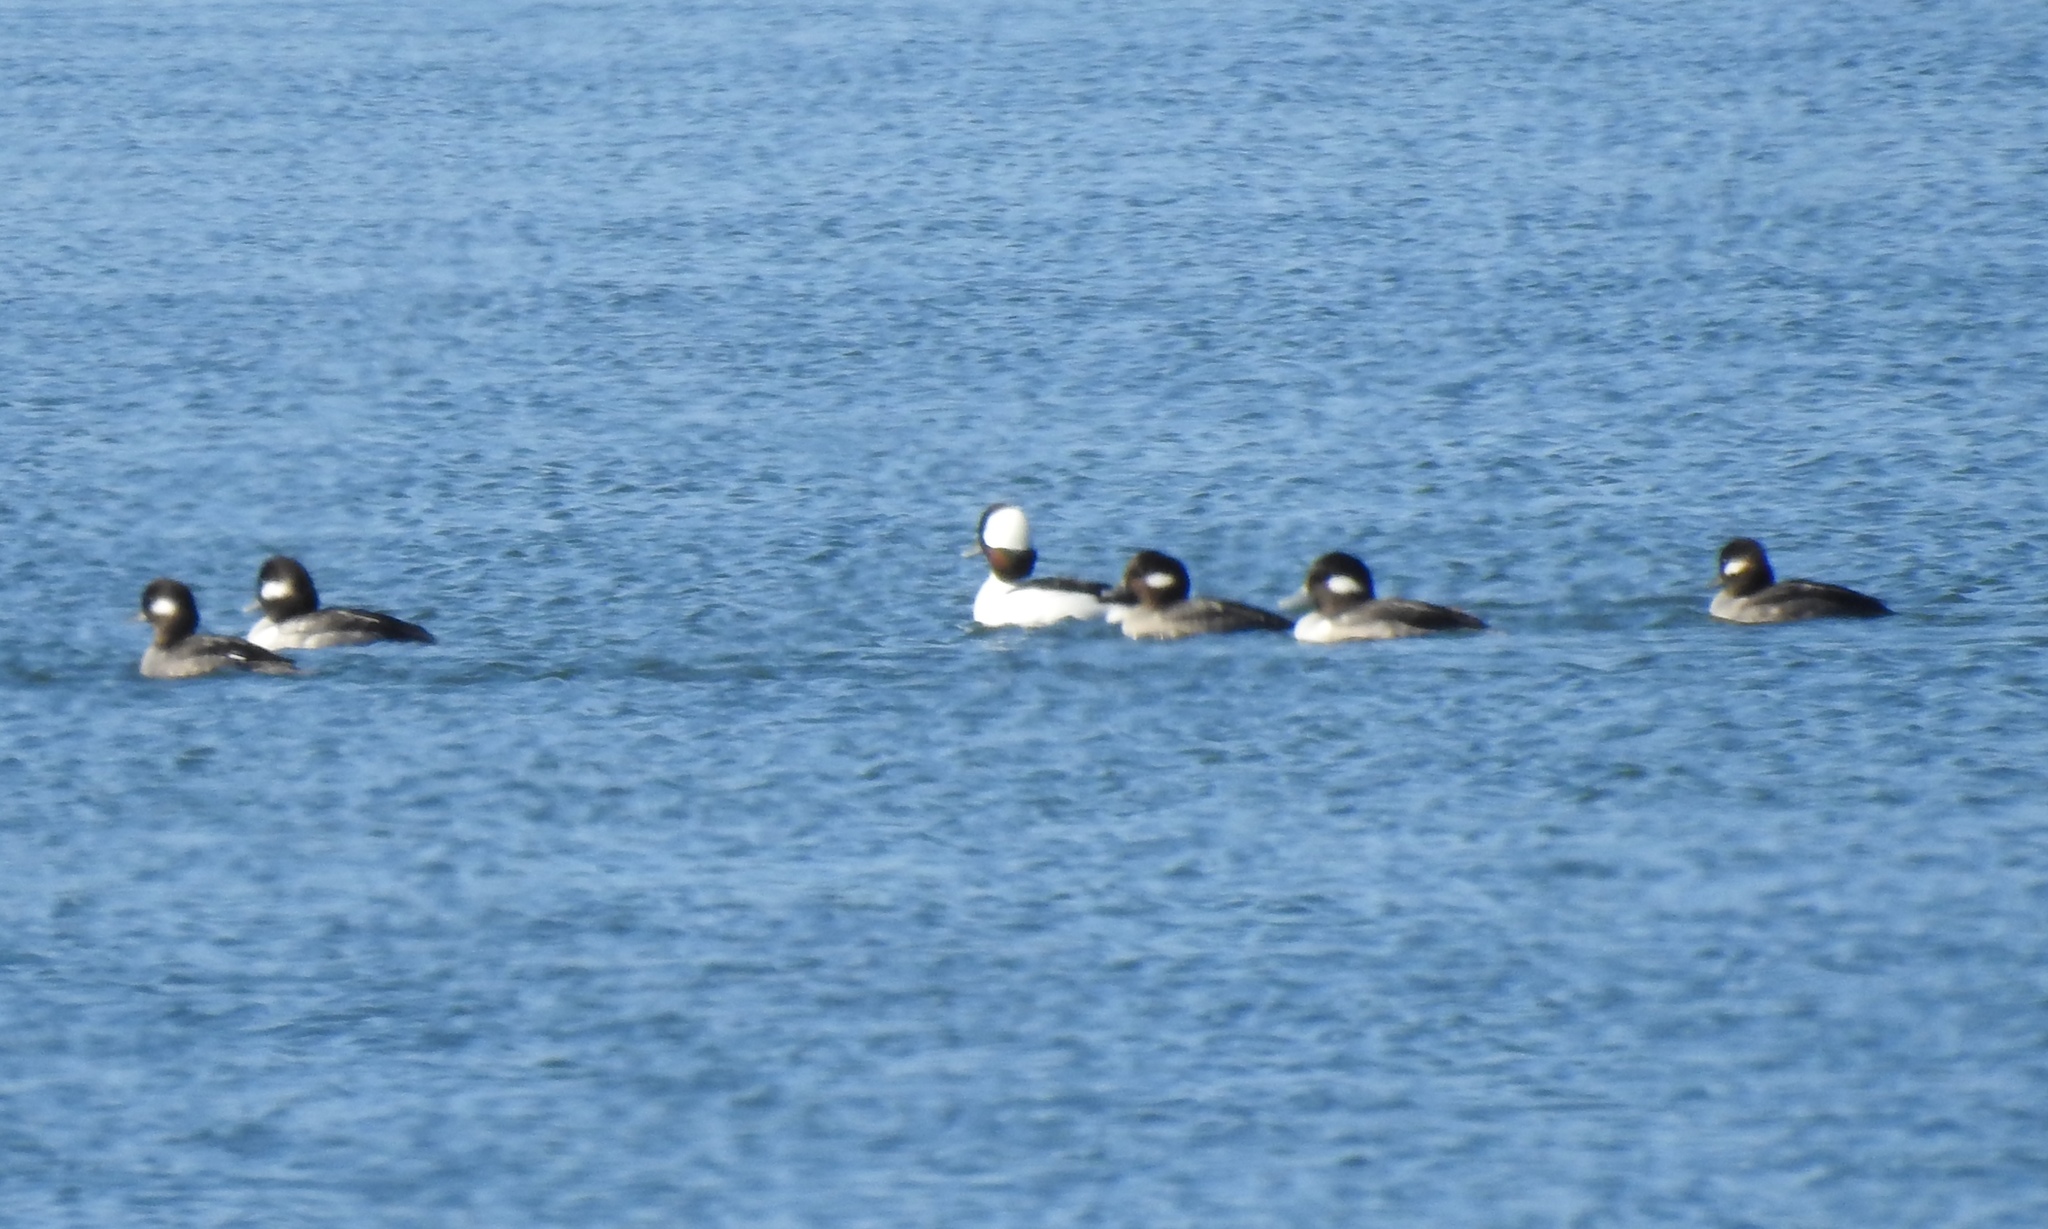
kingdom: Animalia
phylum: Chordata
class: Aves
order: Anseriformes
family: Anatidae
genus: Bucephala
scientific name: Bucephala albeola
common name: Bufflehead
